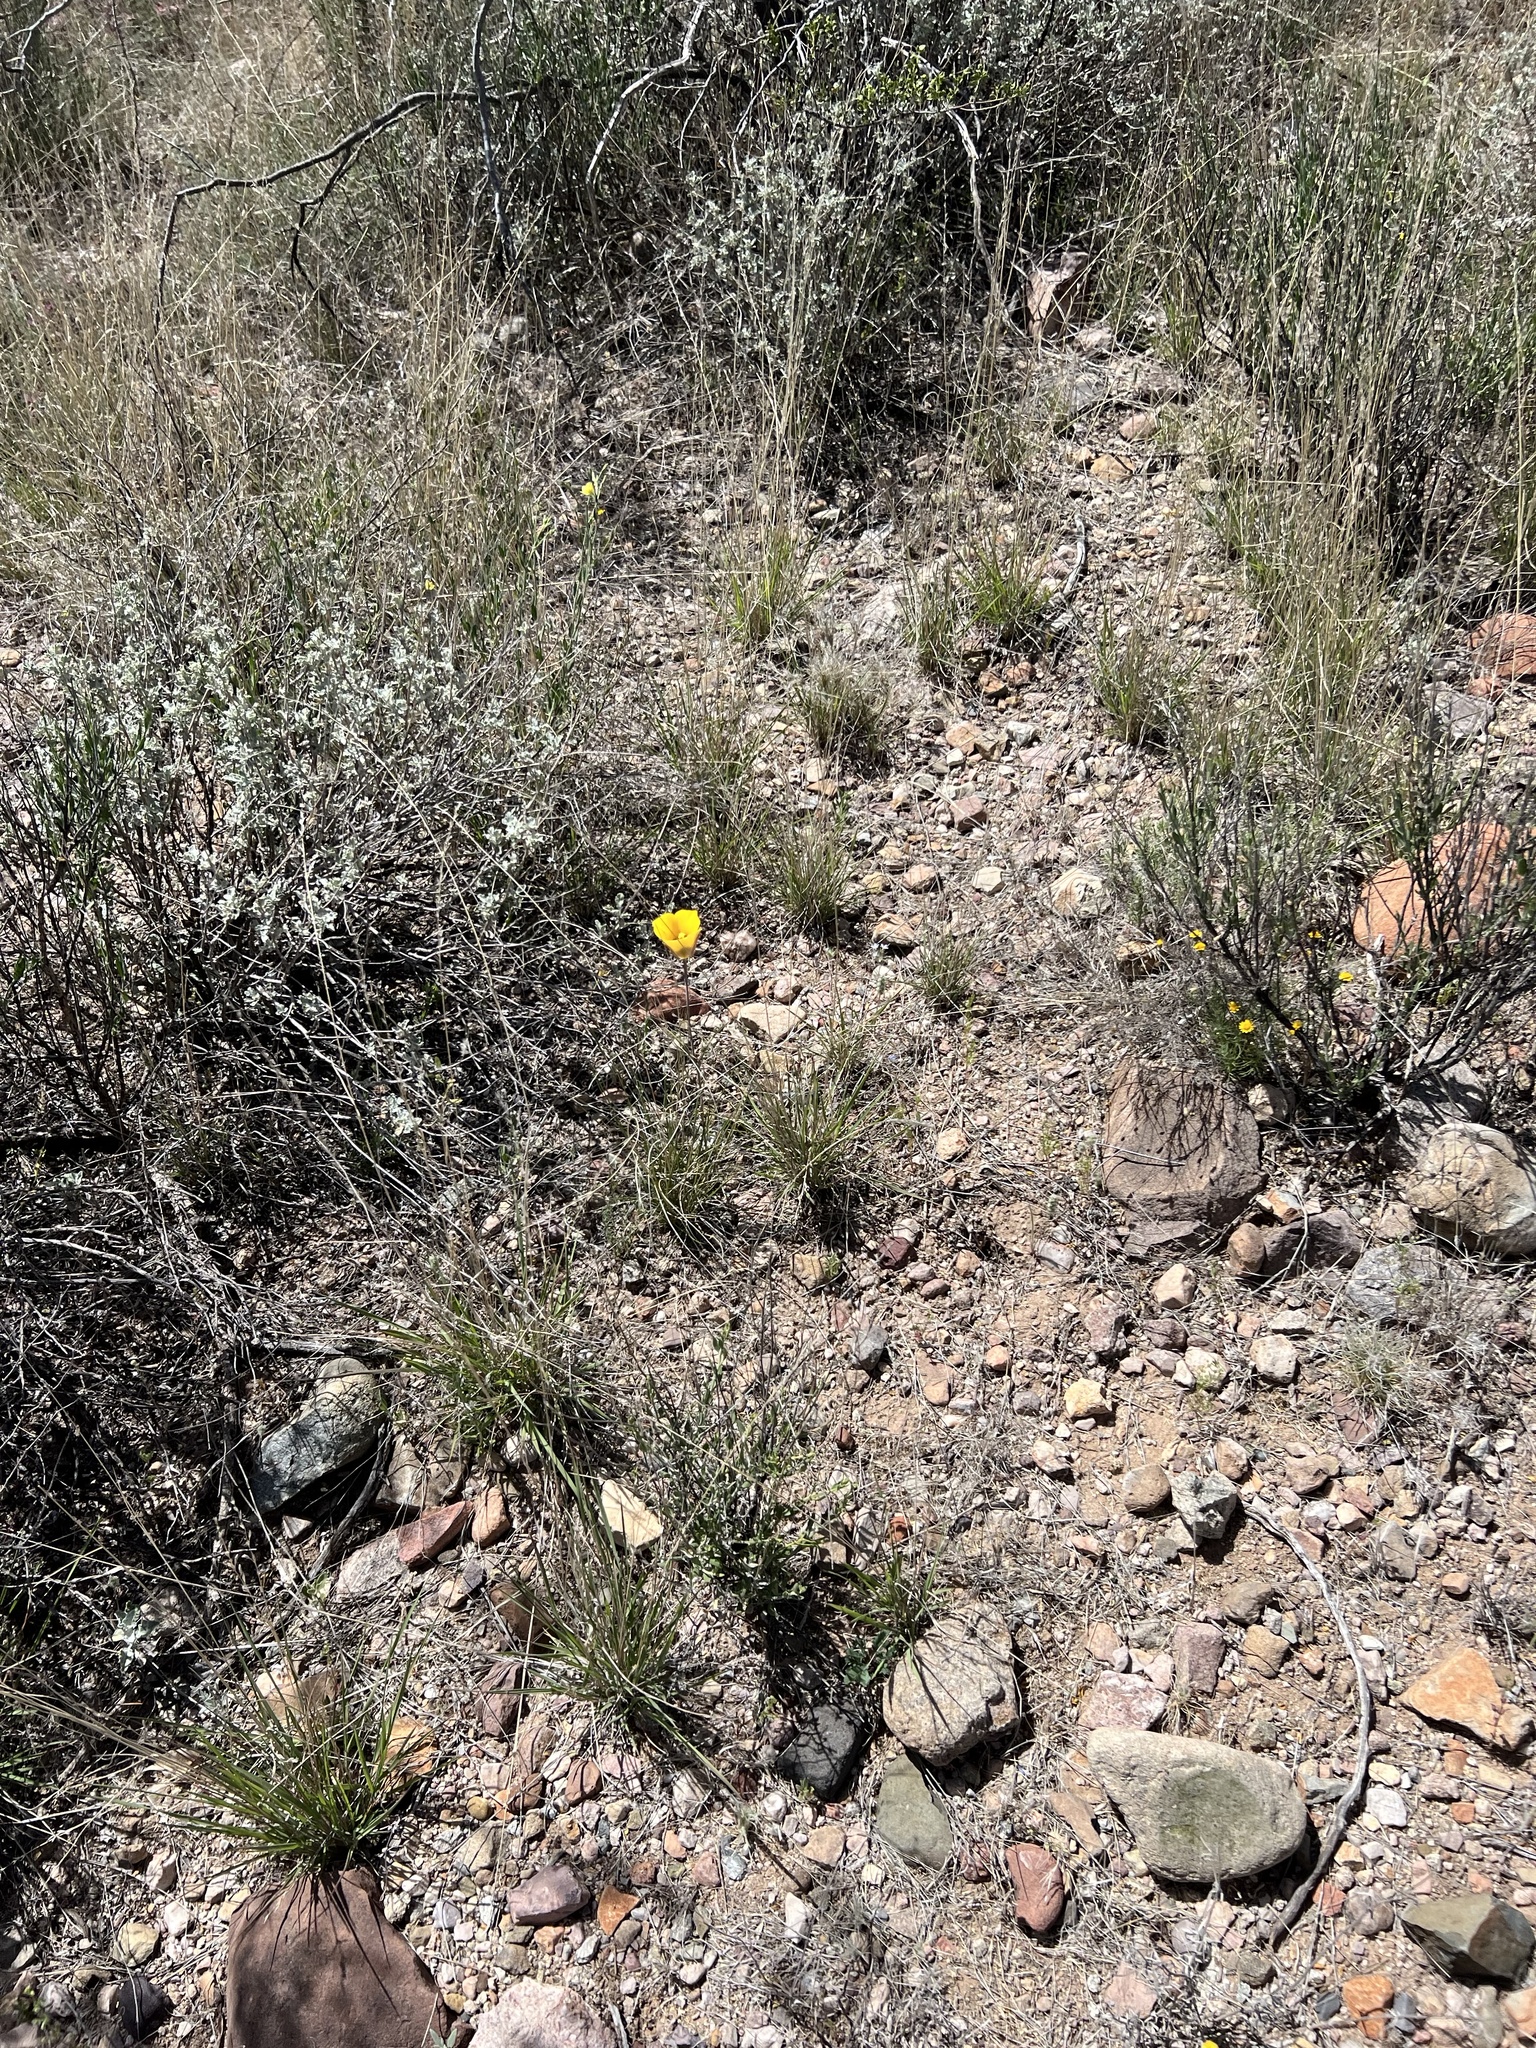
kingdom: Plantae
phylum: Tracheophyta
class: Liliopsida
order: Liliales
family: Liliaceae
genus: Calochortus
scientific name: Calochortus kennedyi
